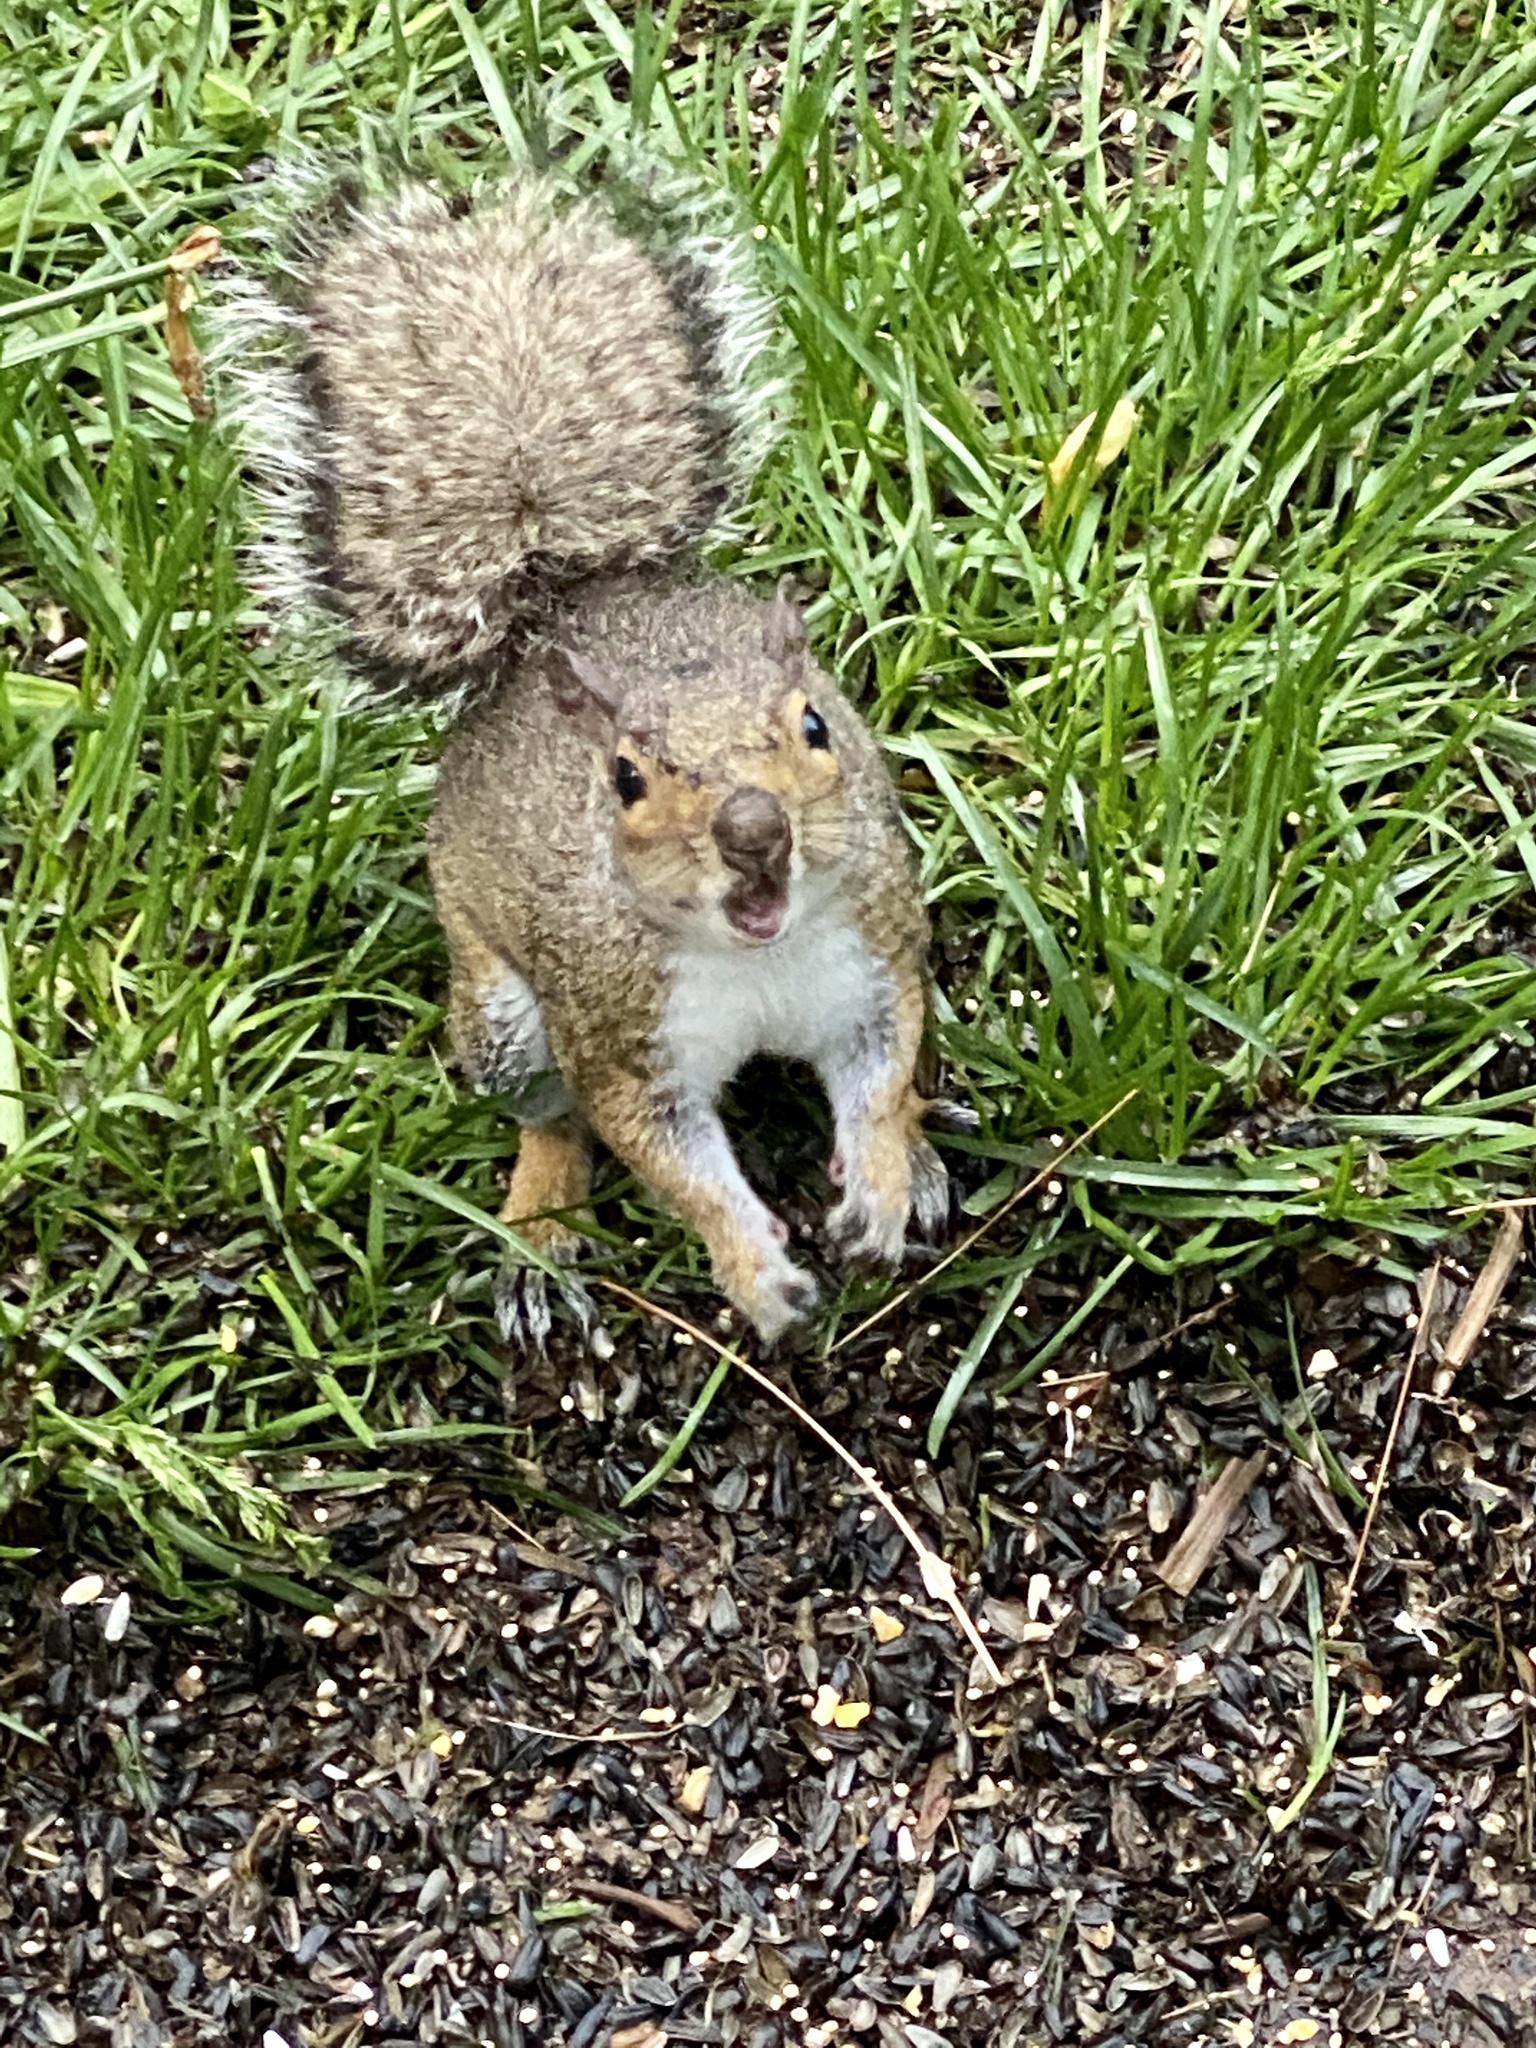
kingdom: Animalia
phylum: Chordata
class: Mammalia
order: Rodentia
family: Sciuridae
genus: Sciurus
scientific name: Sciurus carolinensis
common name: Eastern gray squirrel
